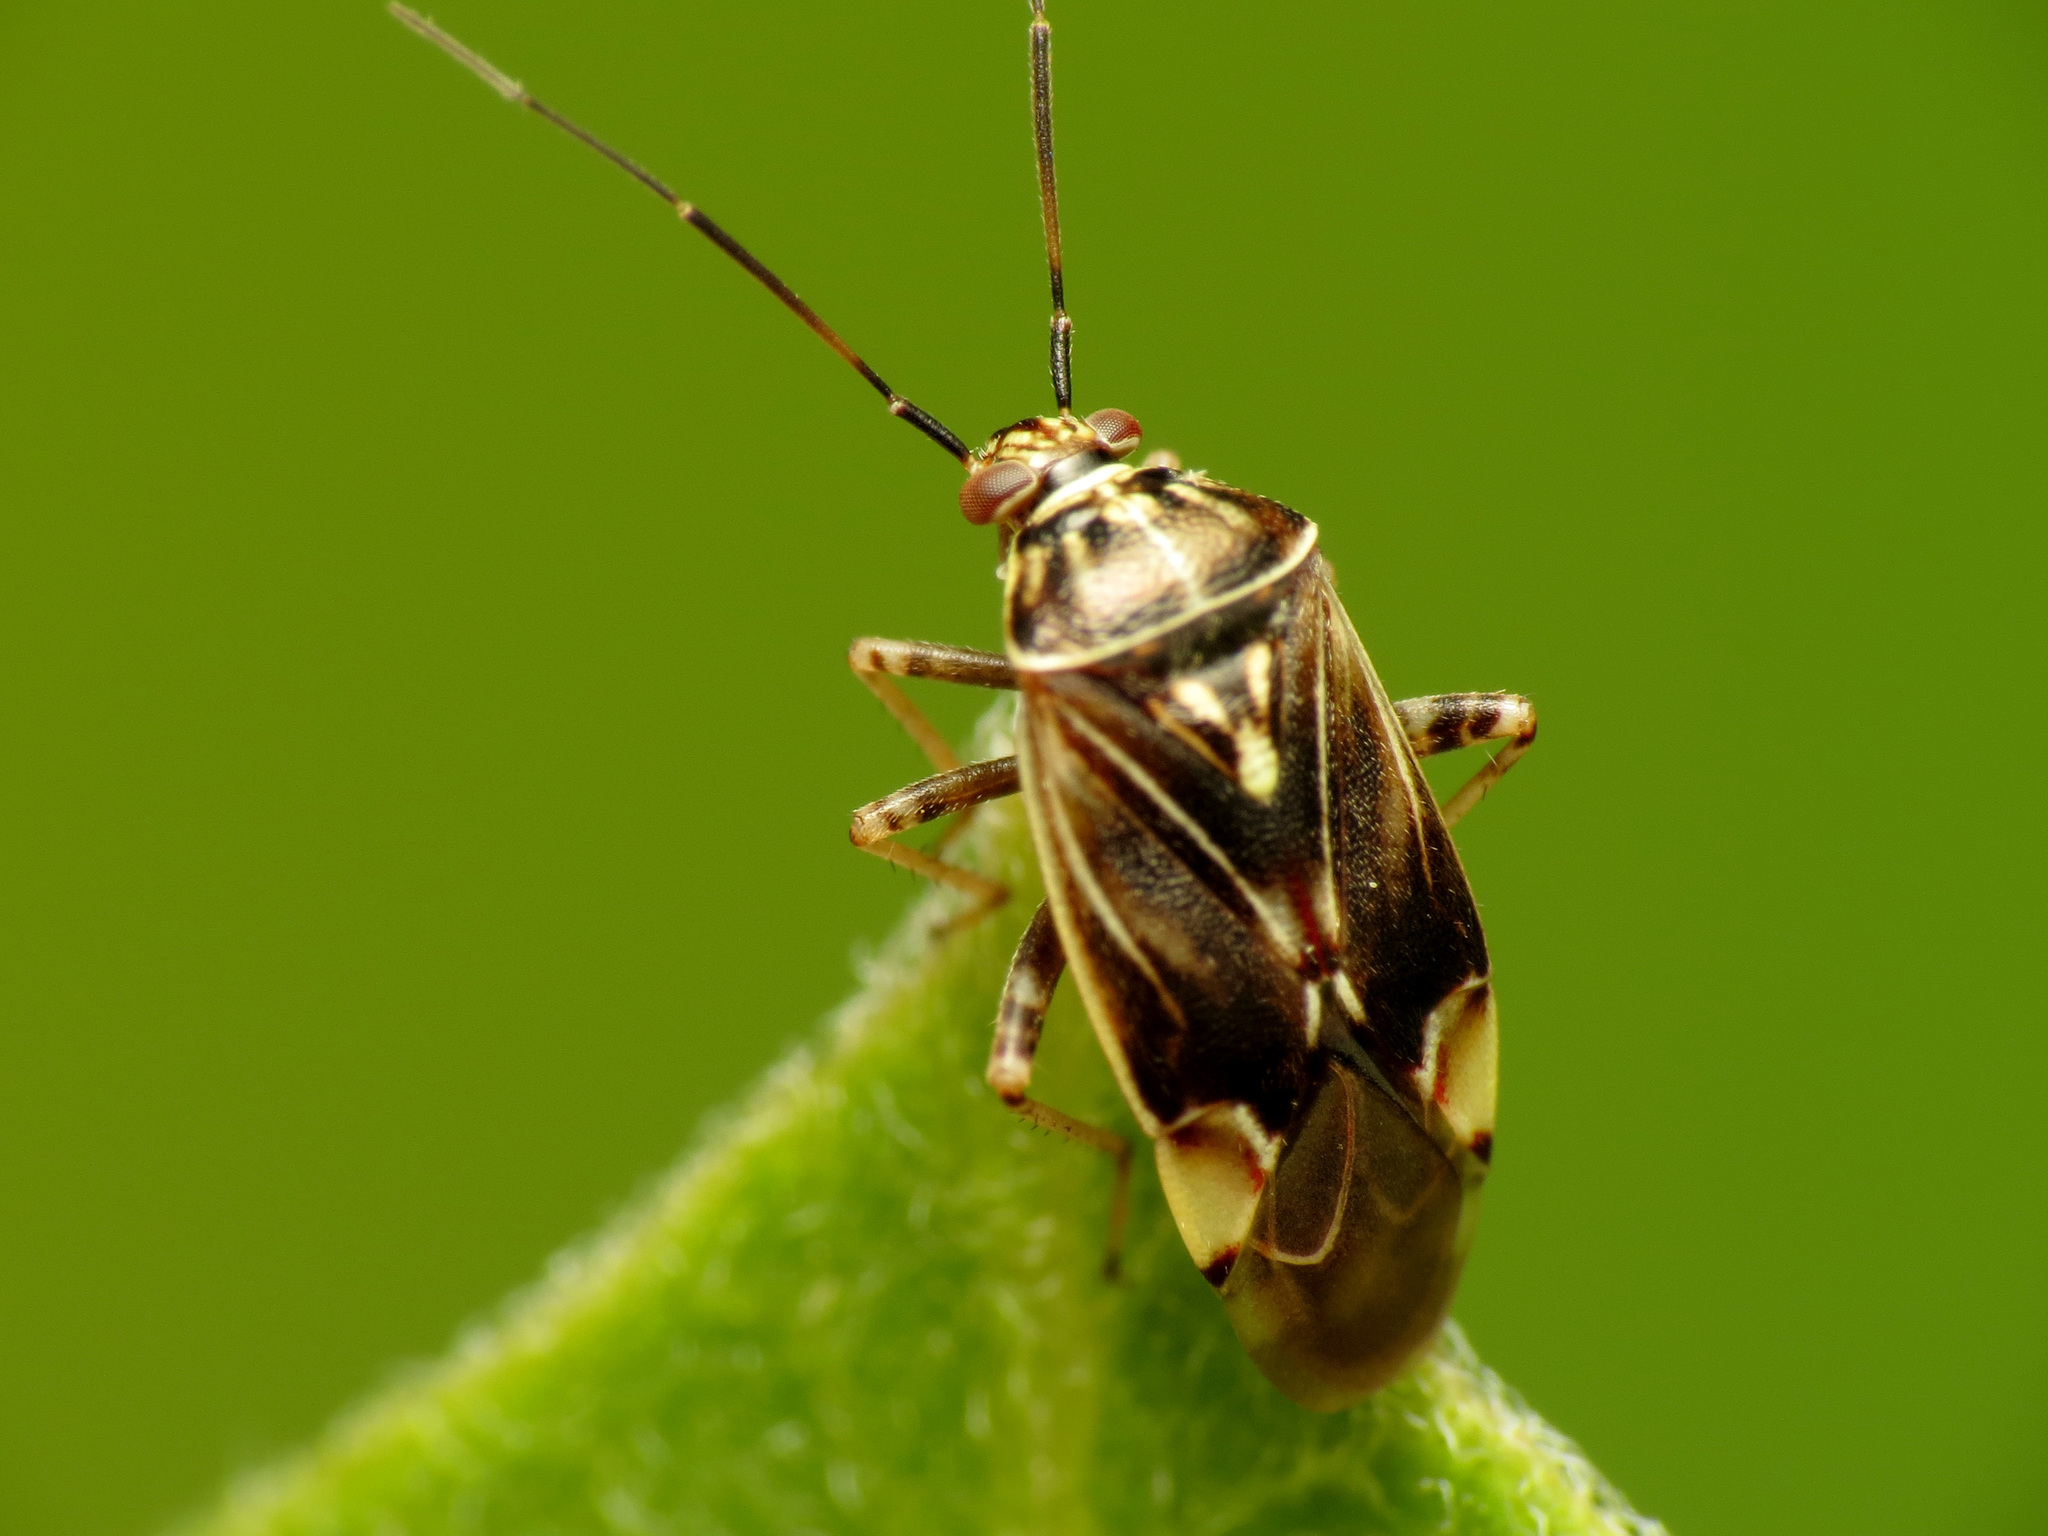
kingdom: Animalia
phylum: Arthropoda
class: Insecta
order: Hemiptera
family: Miridae
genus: Lygus
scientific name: Lygus lineolaris
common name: North american tarnished plant bug
